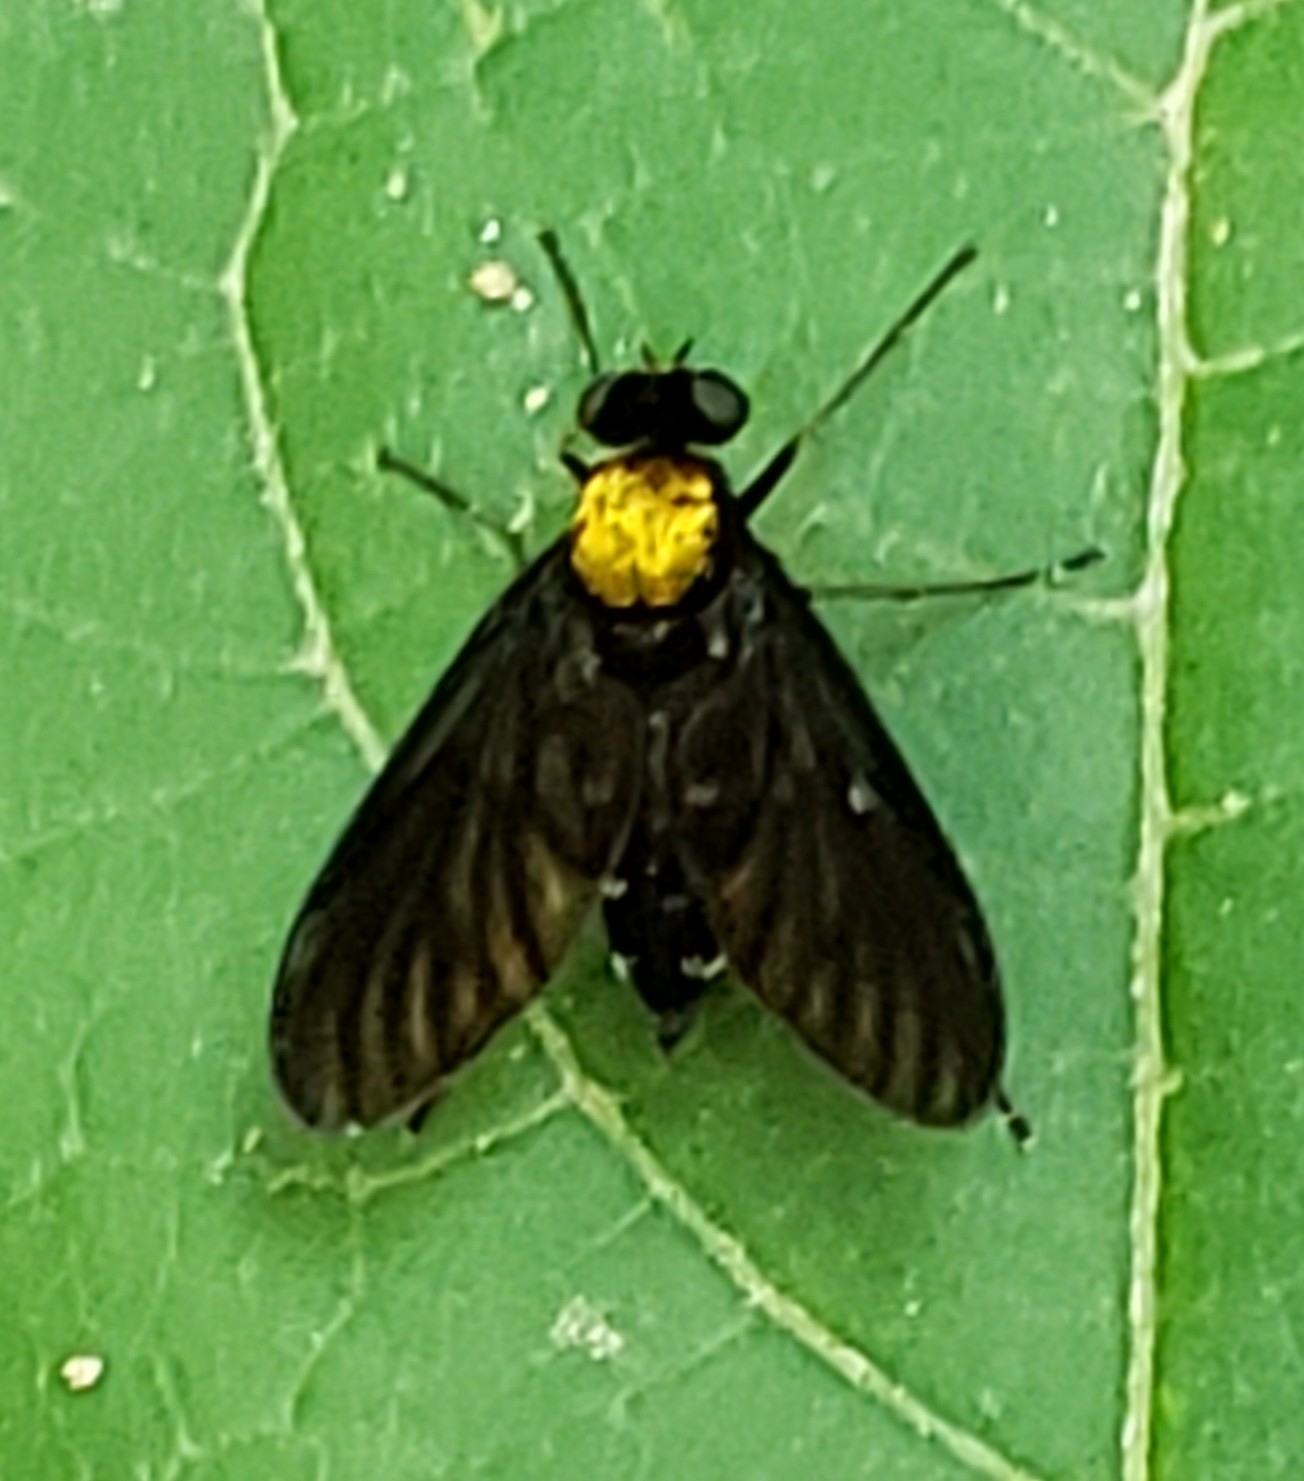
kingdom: Animalia
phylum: Arthropoda
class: Insecta
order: Diptera
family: Rhagionidae
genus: Chrysopilus
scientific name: Chrysopilus thoracicus
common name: Golden-backed snipe fly
